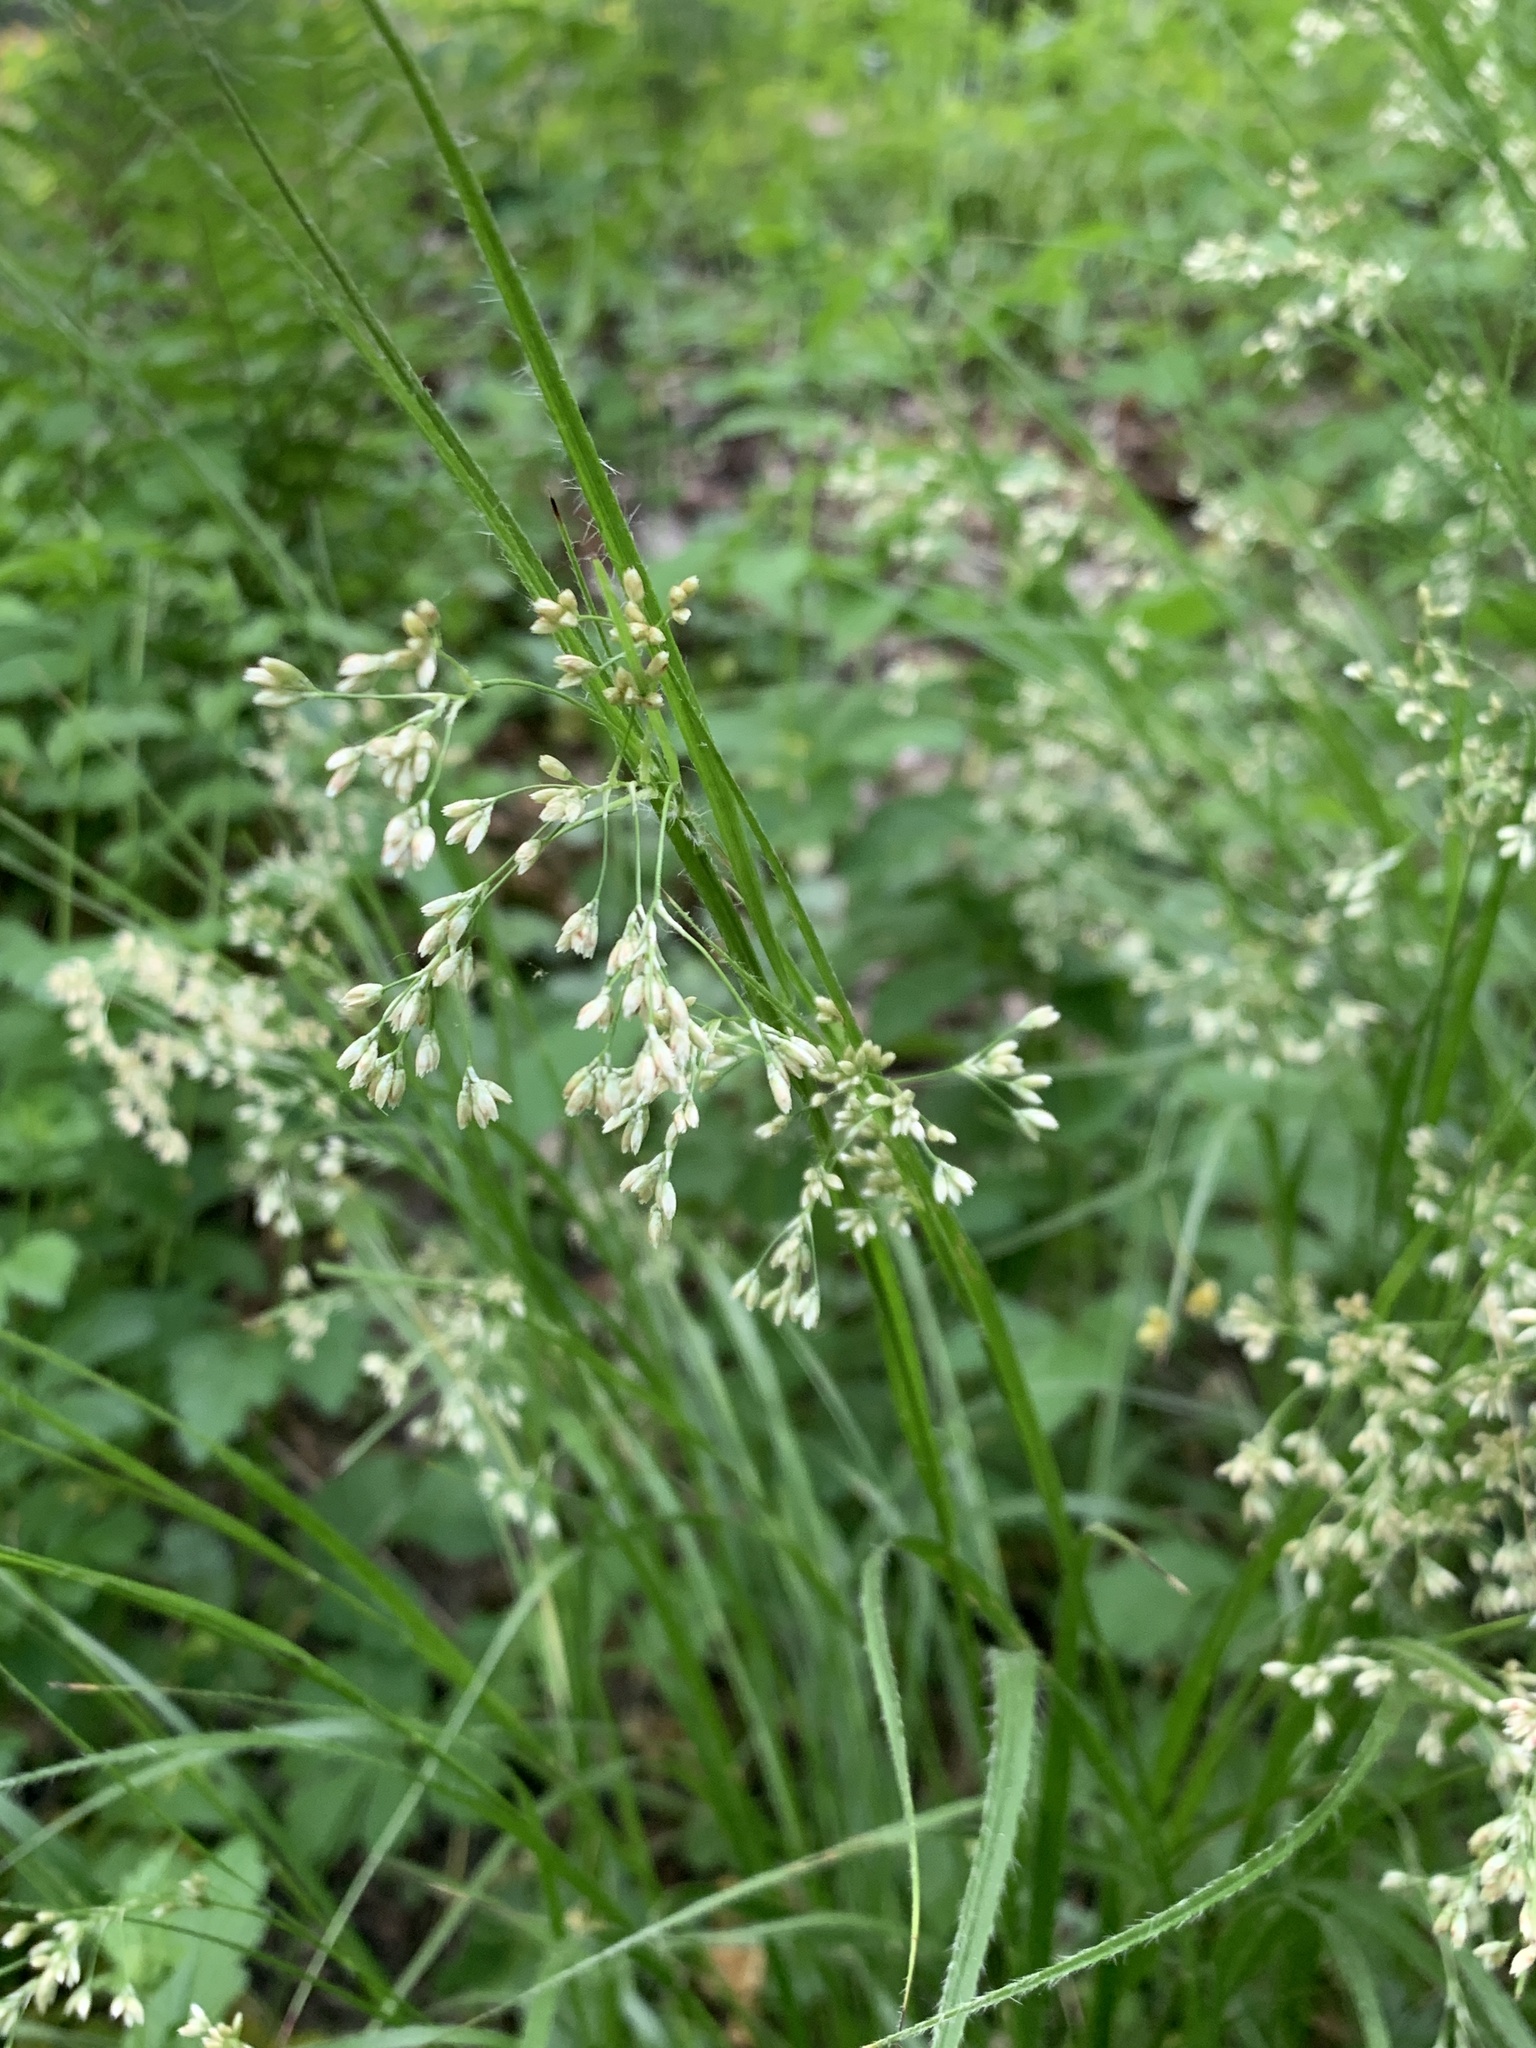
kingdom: Plantae
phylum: Tracheophyta
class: Liliopsida
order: Poales
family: Juncaceae
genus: Luzula
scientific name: Luzula luzuloides
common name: White wood-rush
